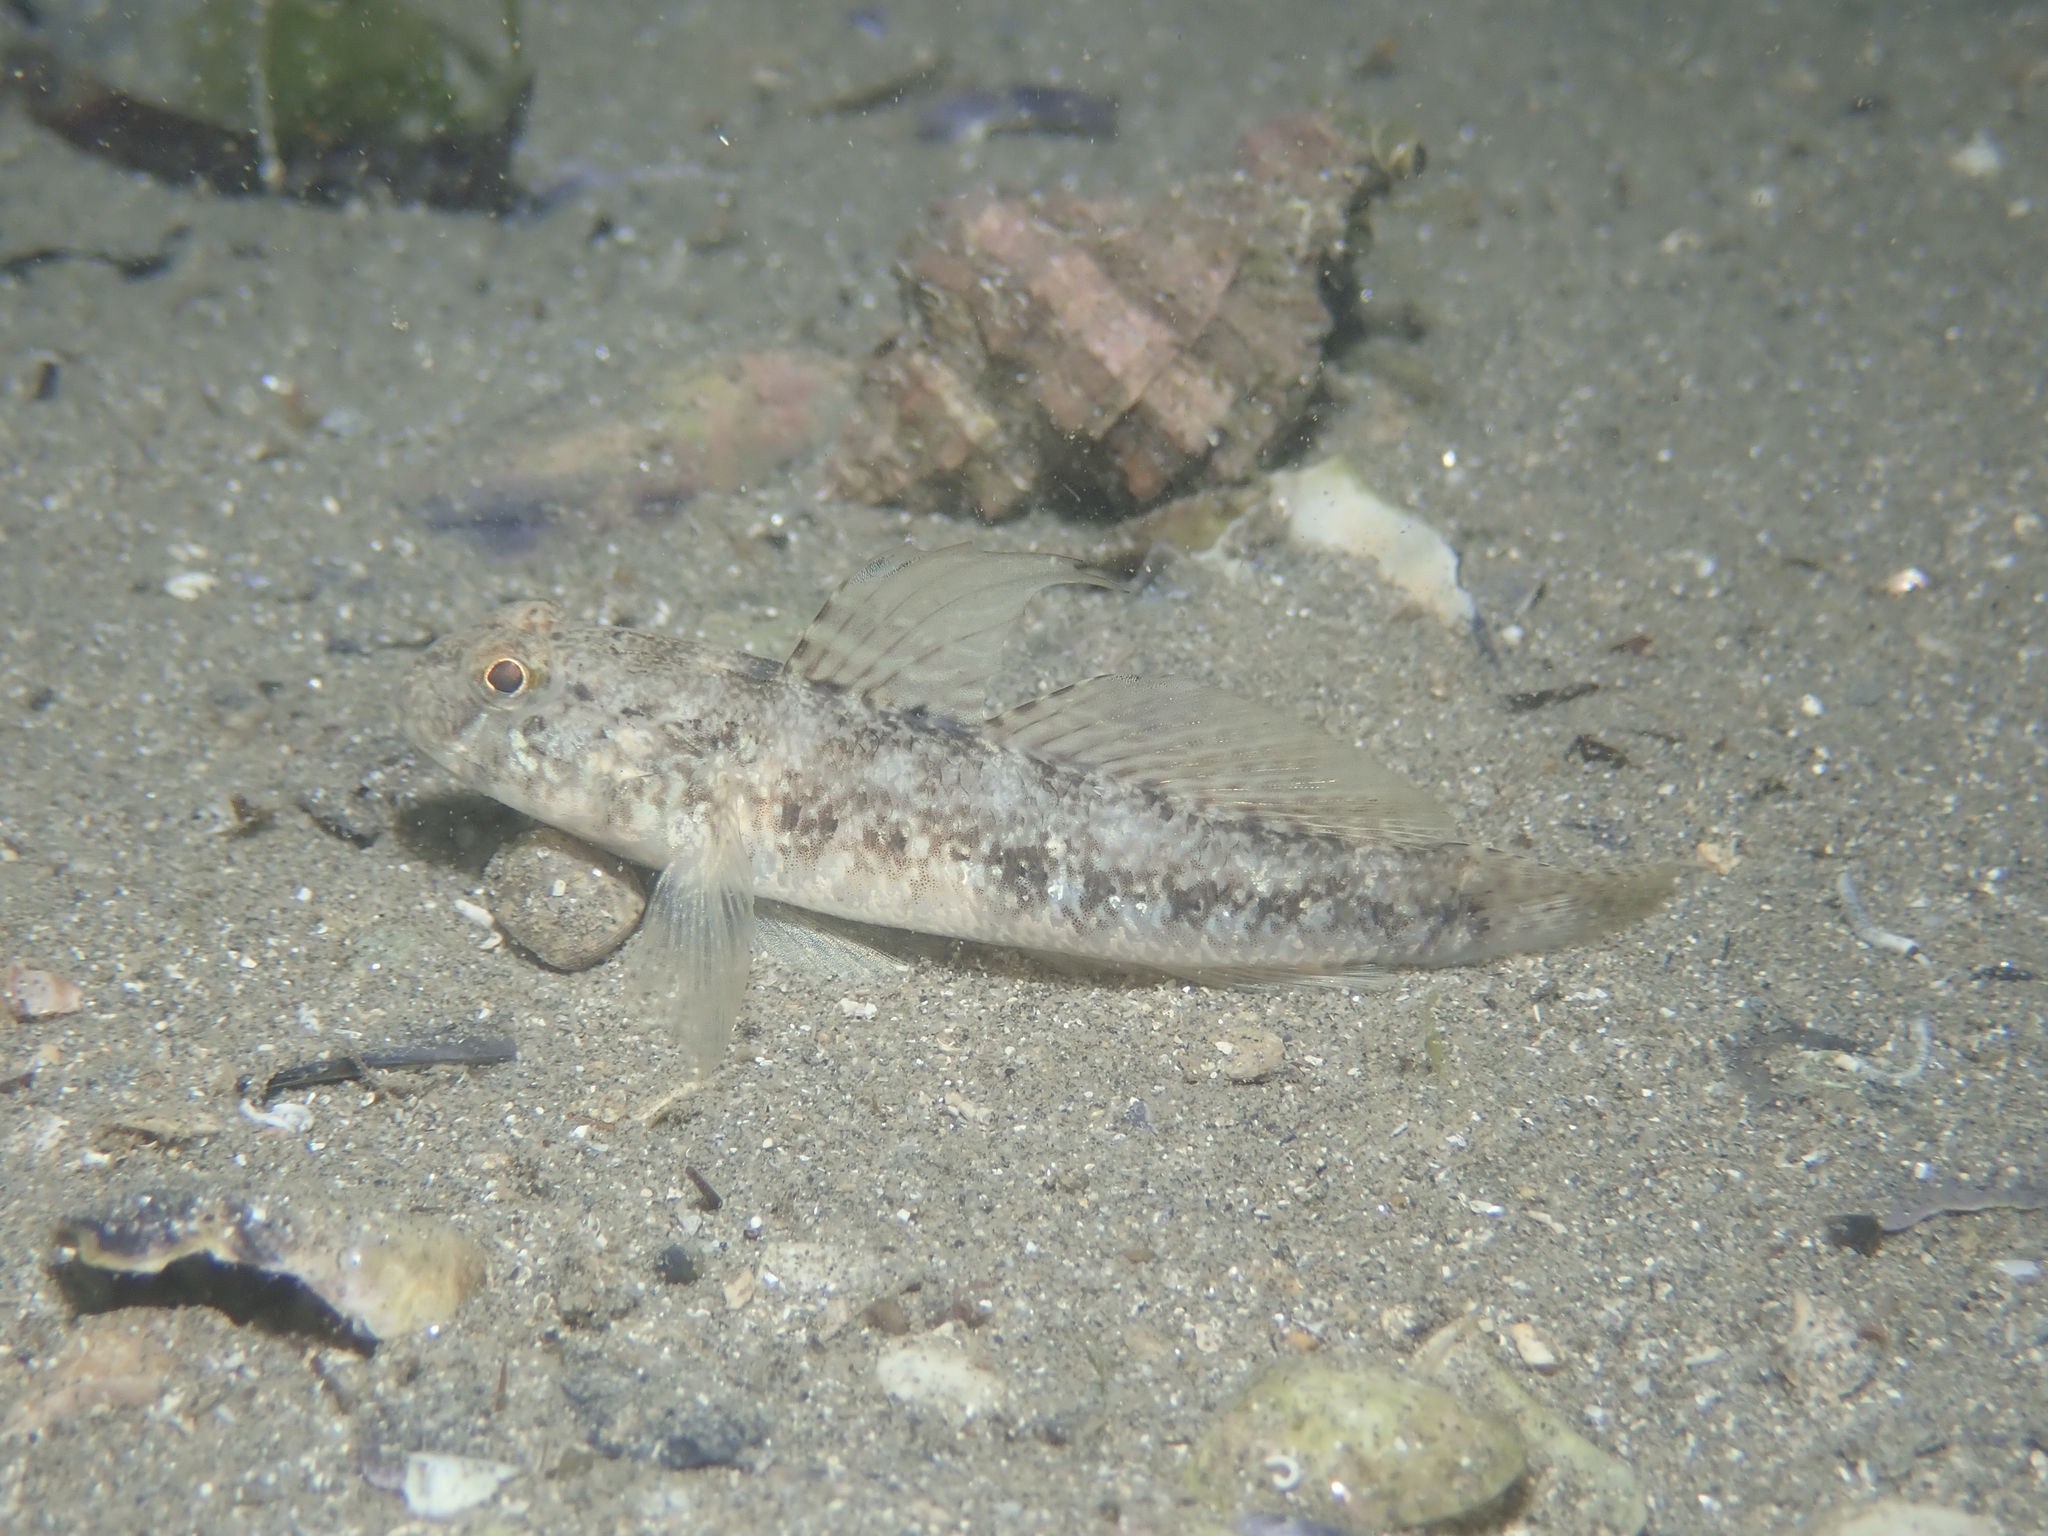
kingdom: Animalia
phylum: Chordata
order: Perciformes
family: Gobiidae
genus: Gobius
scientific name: Gobius niger
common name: Black goby
